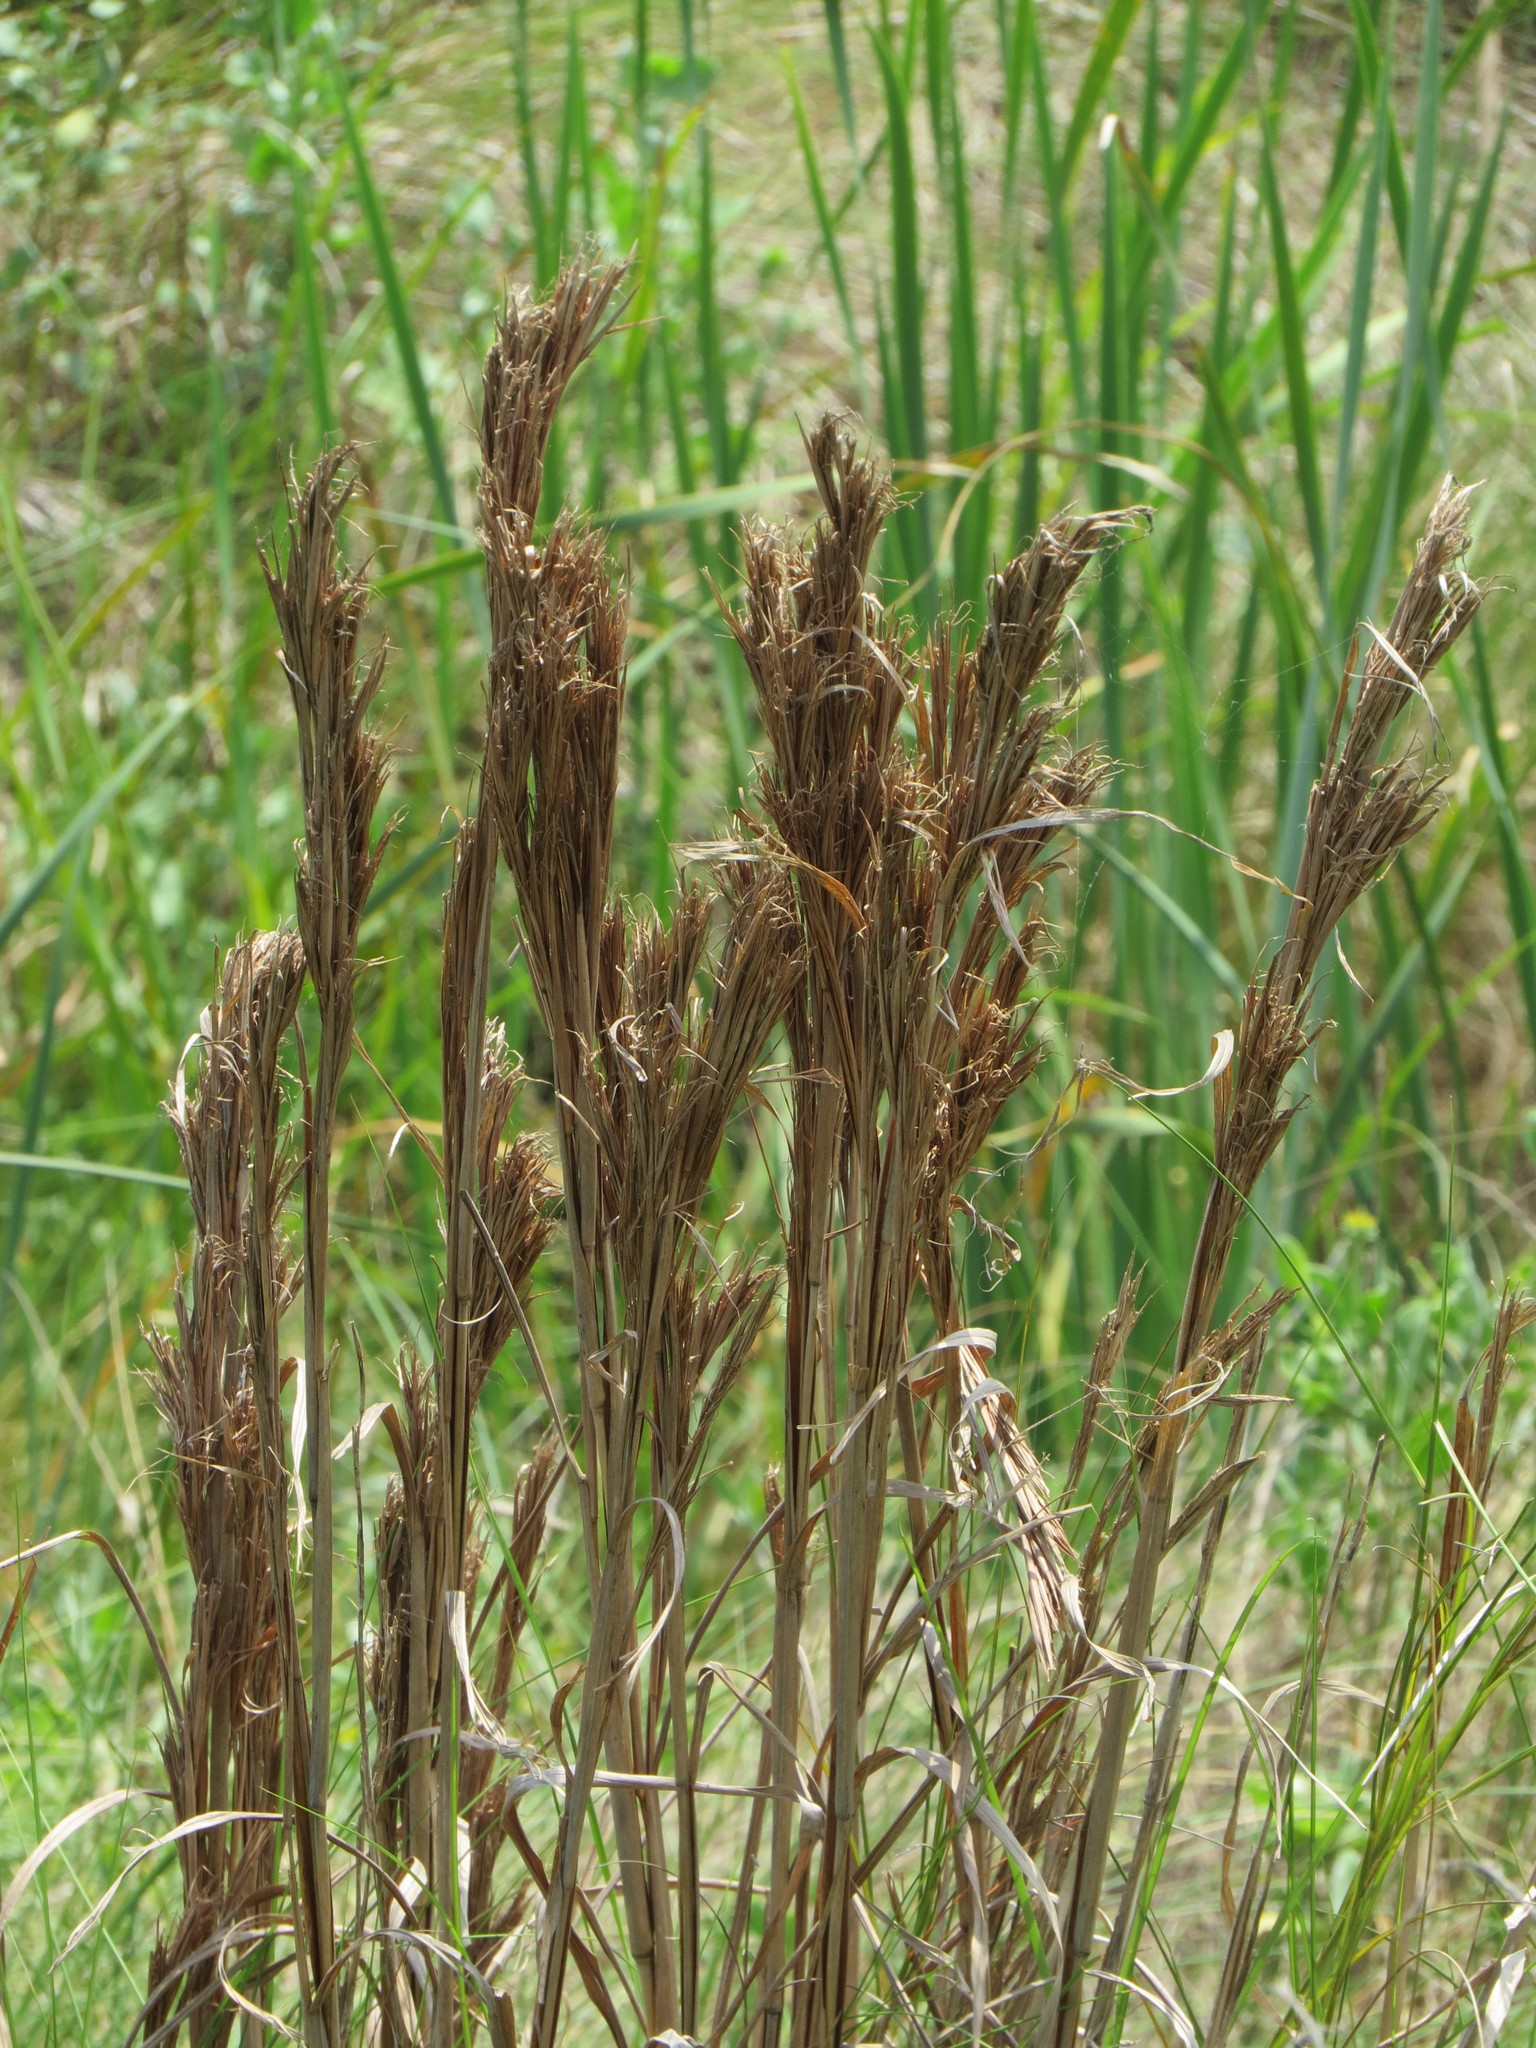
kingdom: Plantae
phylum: Tracheophyta
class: Liliopsida
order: Poales
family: Poaceae
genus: Andropogon
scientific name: Andropogon tenuispatheus
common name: Bushy bluestem
